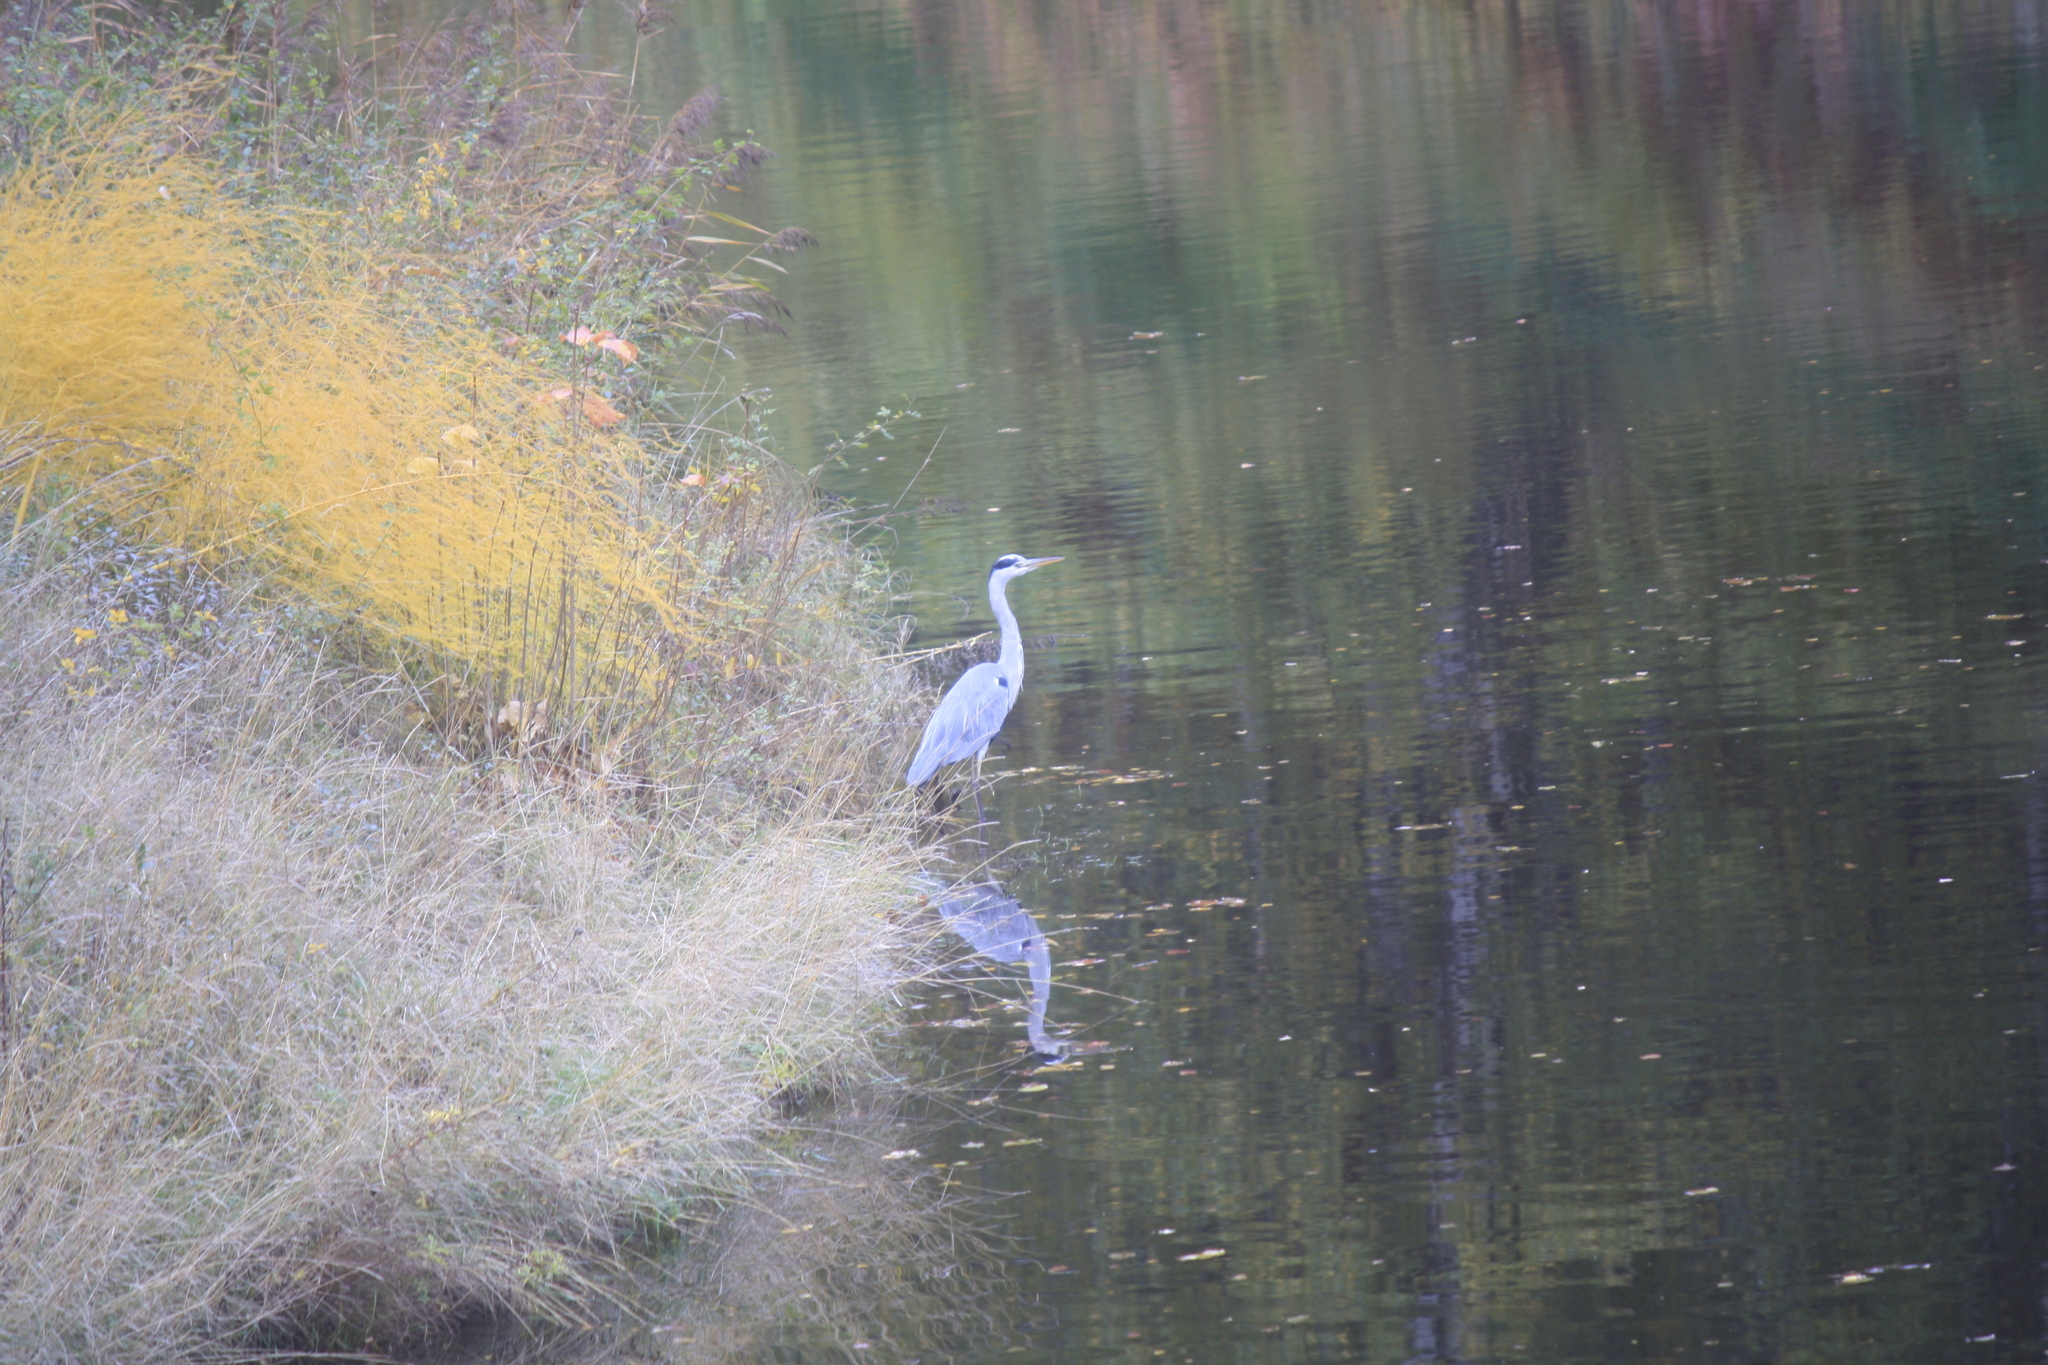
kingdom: Animalia
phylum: Chordata
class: Aves
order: Pelecaniformes
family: Ardeidae
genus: Ardea
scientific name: Ardea cinerea
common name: Grey heron
